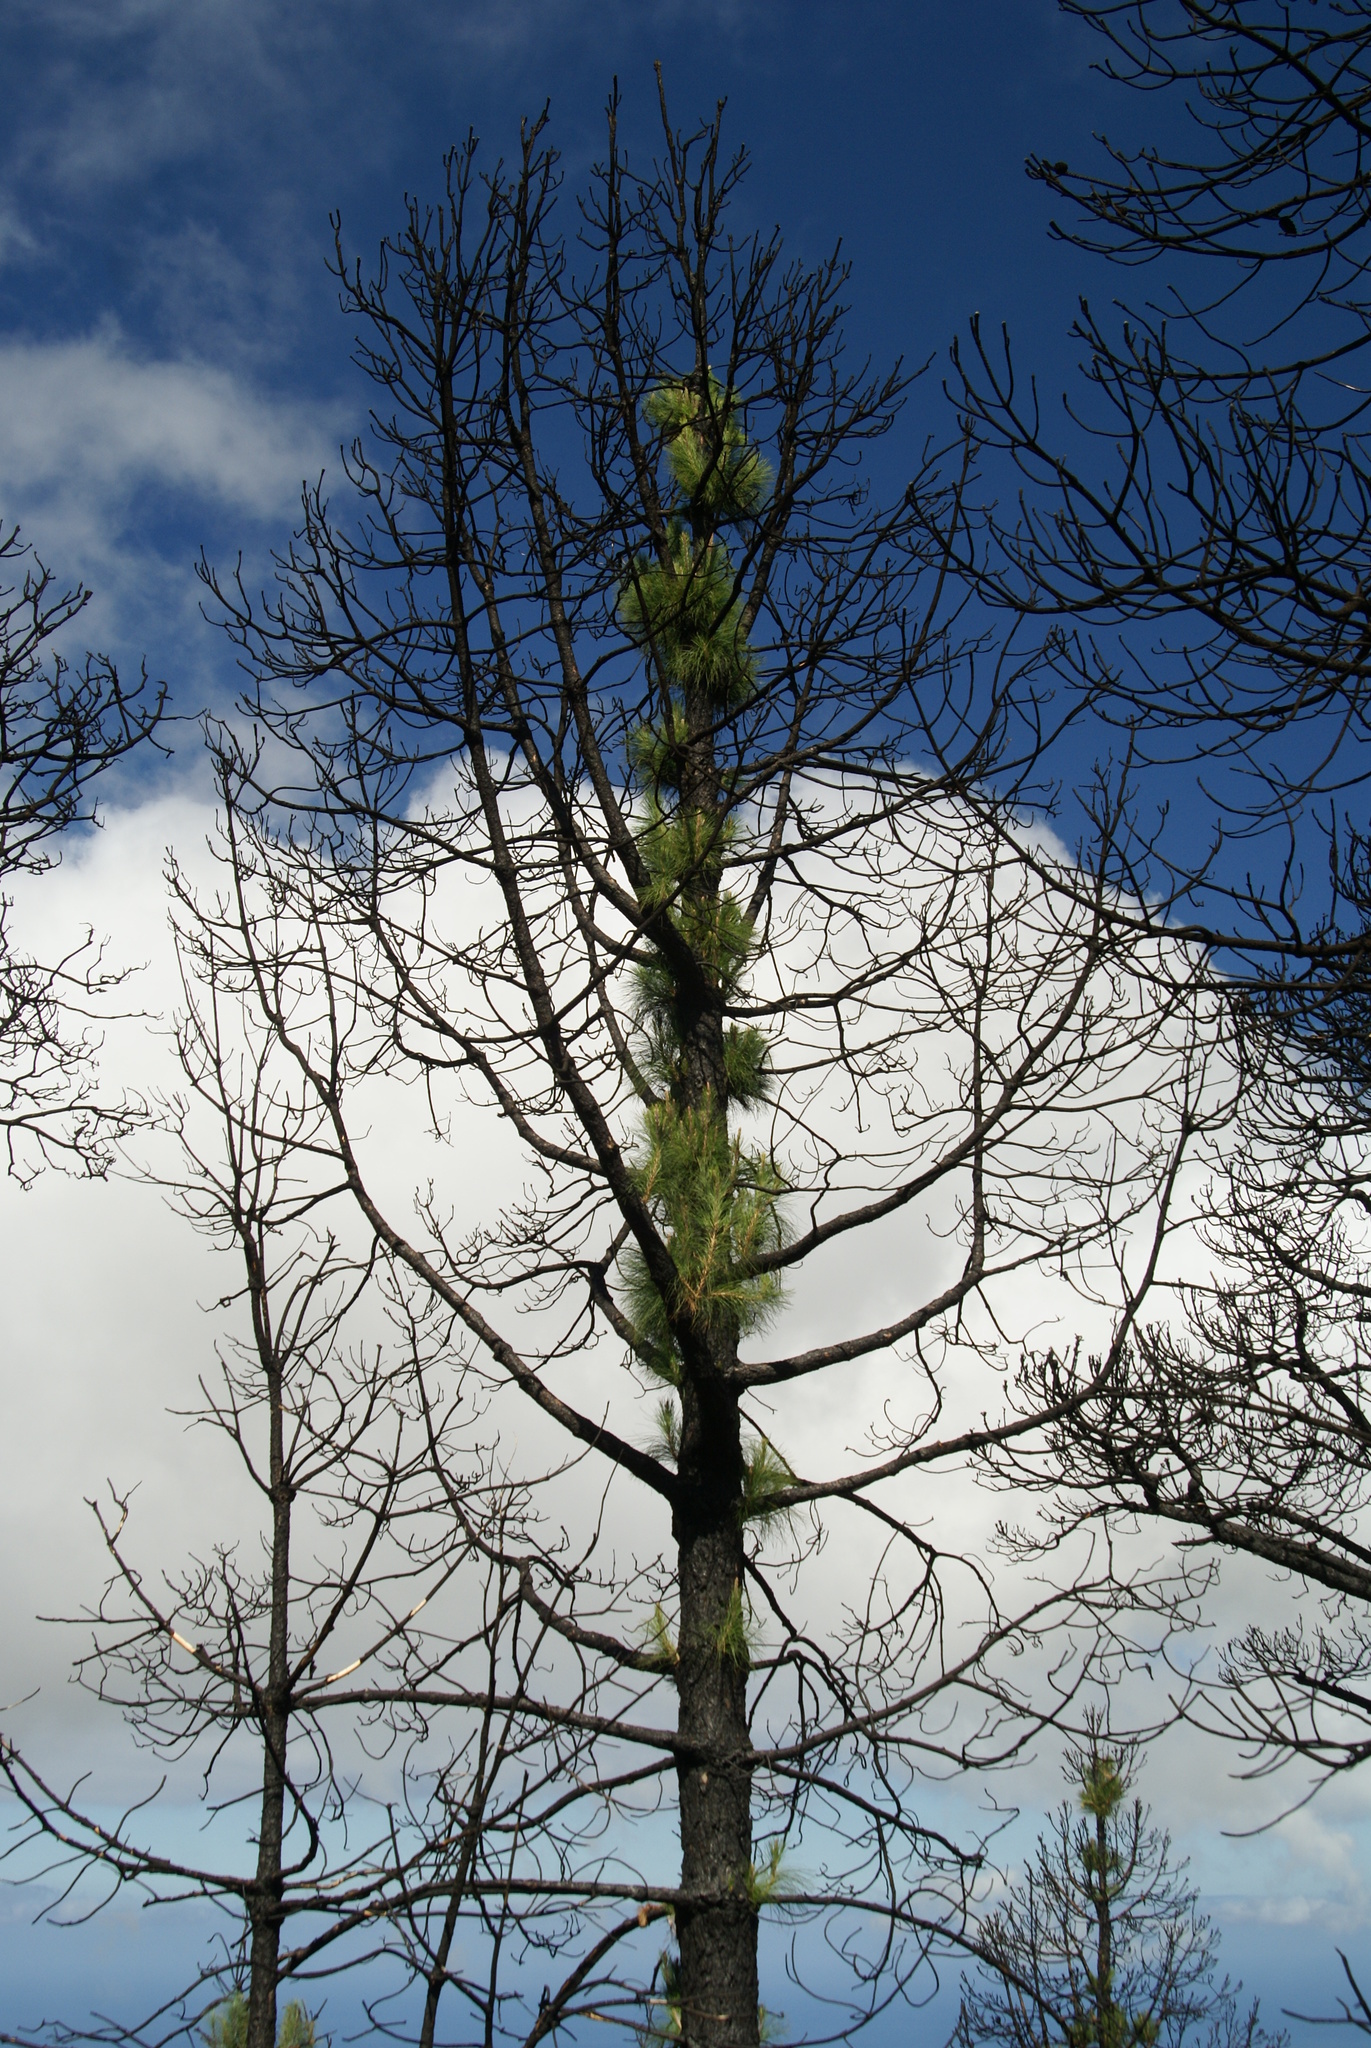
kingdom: Plantae
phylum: Tracheophyta
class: Pinopsida
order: Pinales
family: Pinaceae
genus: Pinus
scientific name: Pinus canariensis
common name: Canary islands pine
